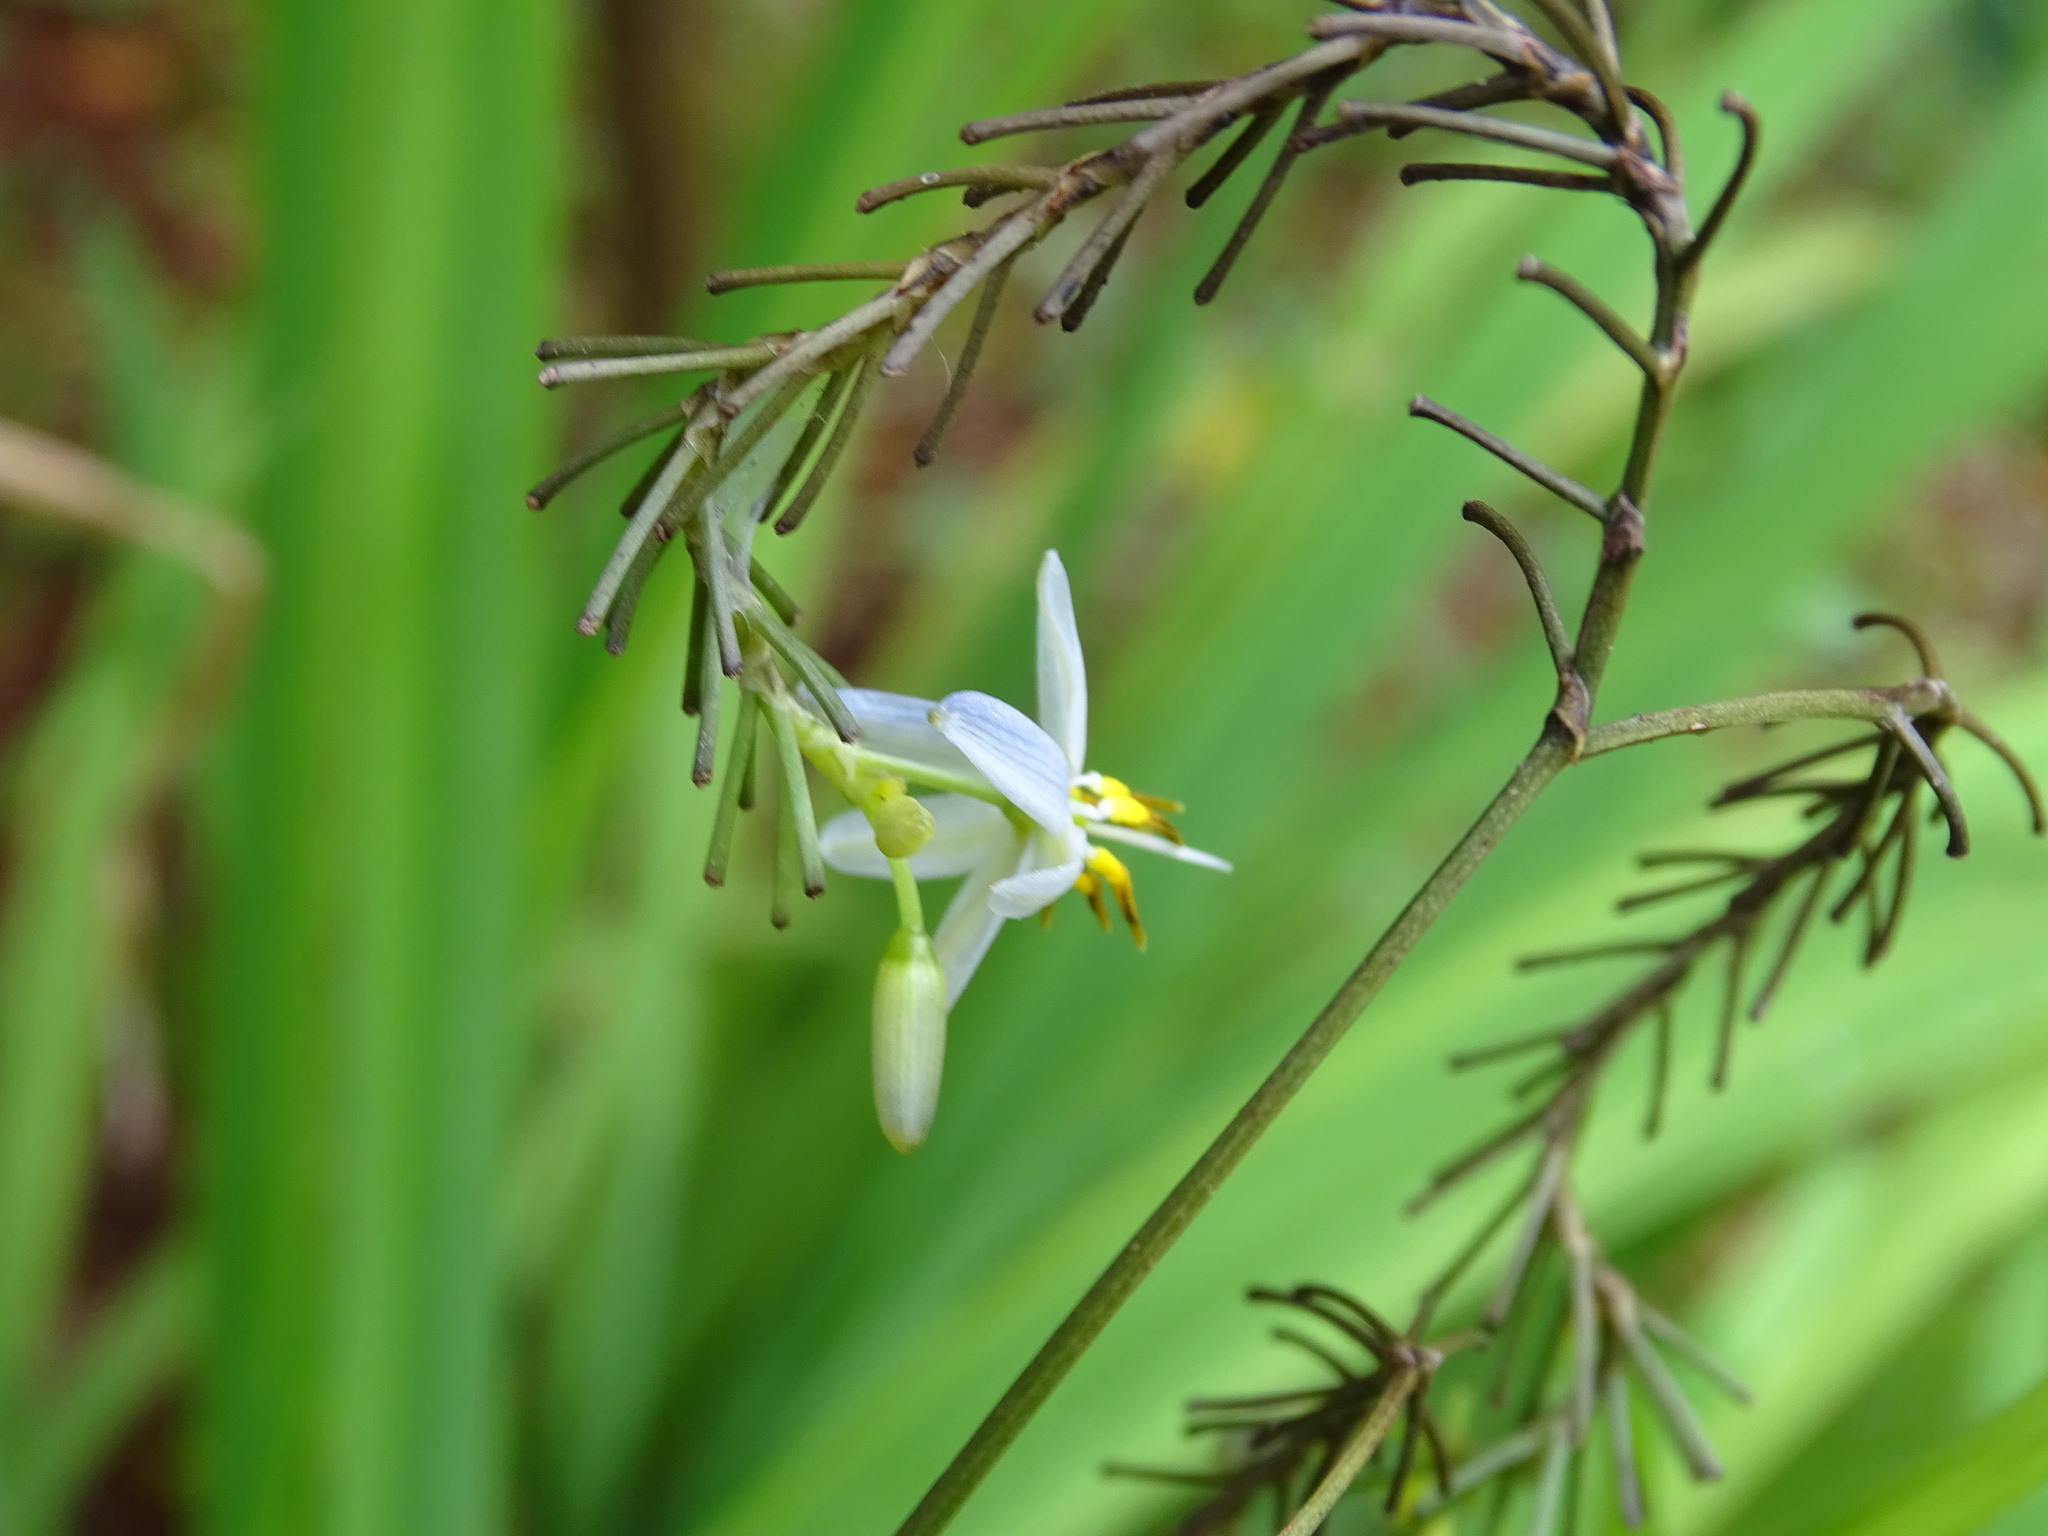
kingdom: Plantae
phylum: Tracheophyta
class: Liliopsida
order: Asparagales
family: Asphodelaceae
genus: Dianella
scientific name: Dianella ensifolia
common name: New zealand lilyplant
